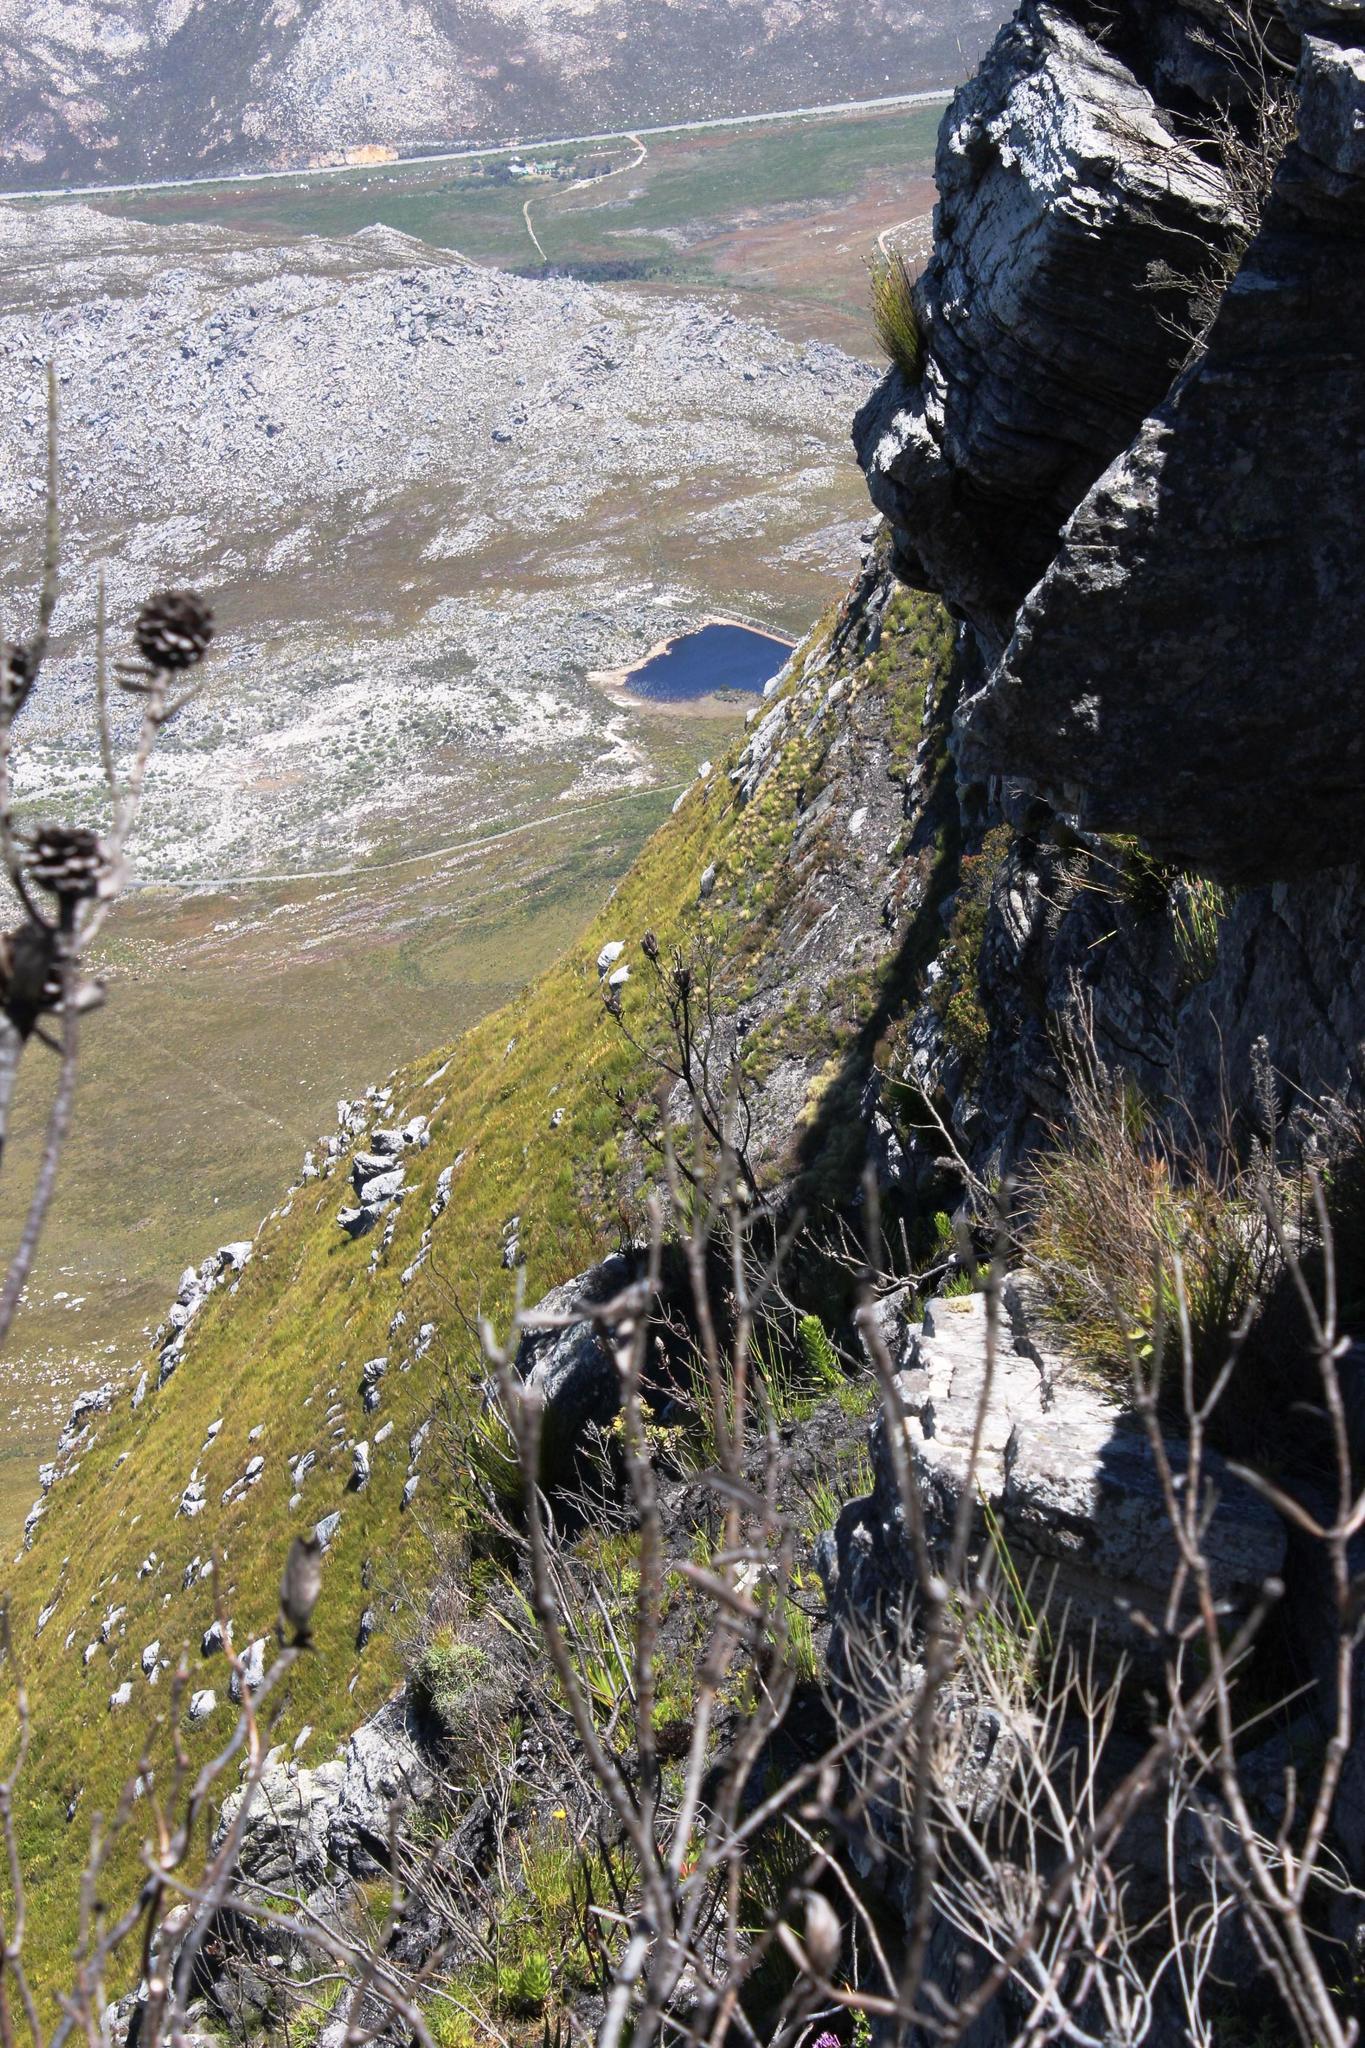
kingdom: Plantae
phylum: Tracheophyta
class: Magnoliopsida
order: Proteales
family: Proteaceae
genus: Protea
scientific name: Protea stokoei
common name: Pink sugarbush
